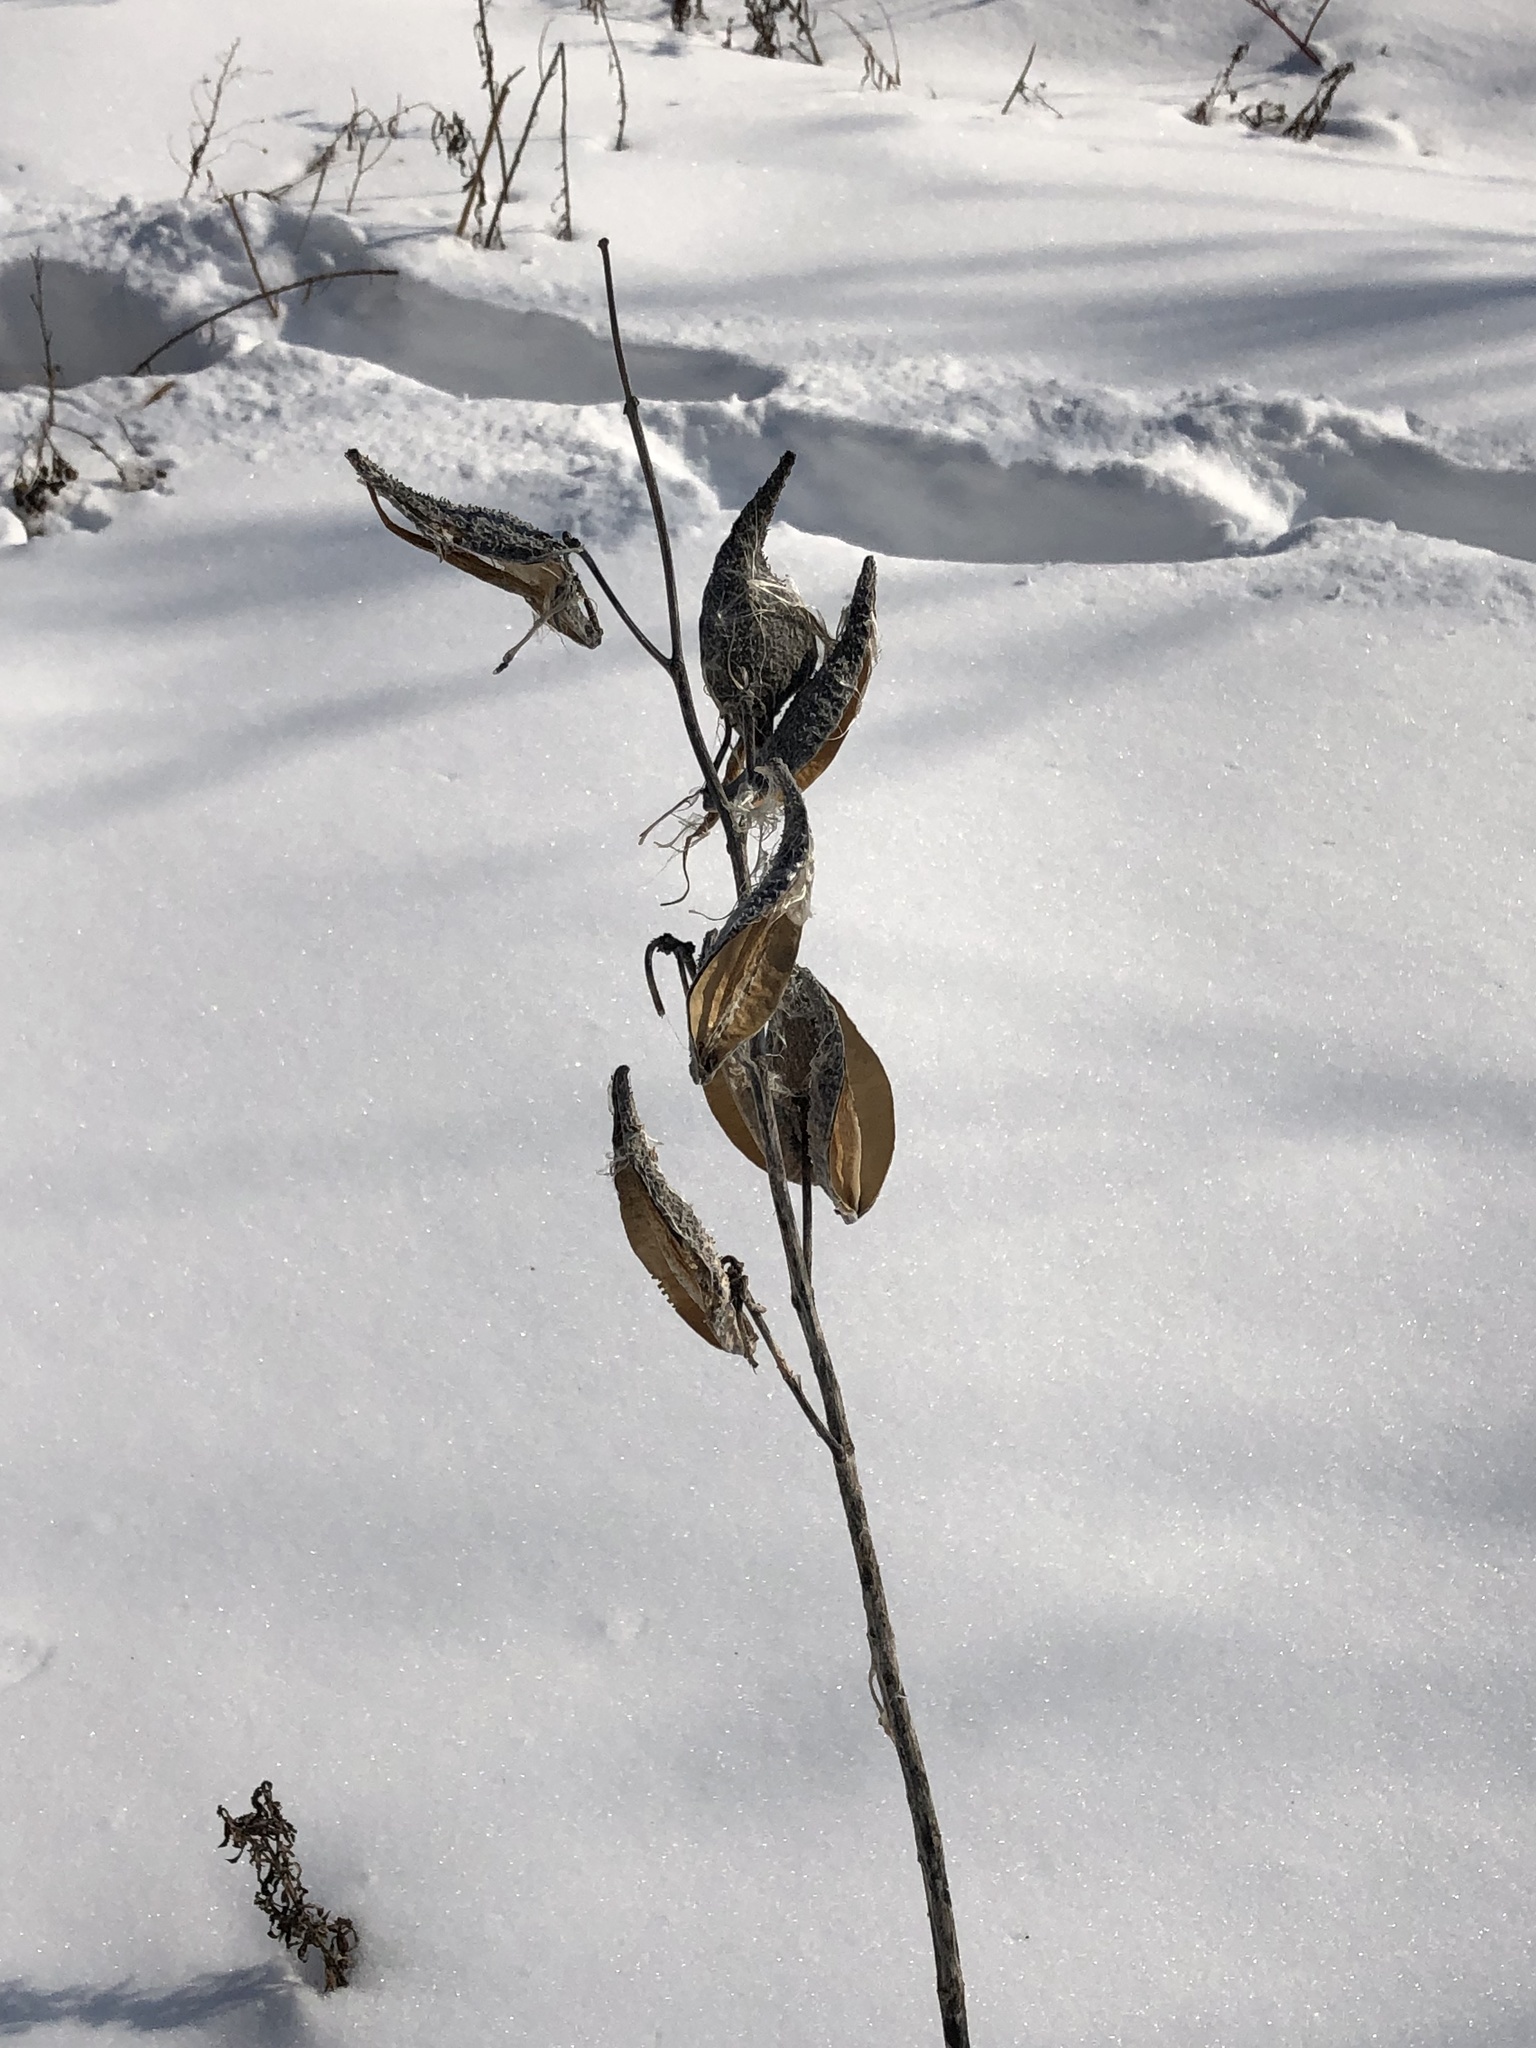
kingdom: Plantae
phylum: Tracheophyta
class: Magnoliopsida
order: Gentianales
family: Apocynaceae
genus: Asclepias
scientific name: Asclepias syriaca
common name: Common milkweed
